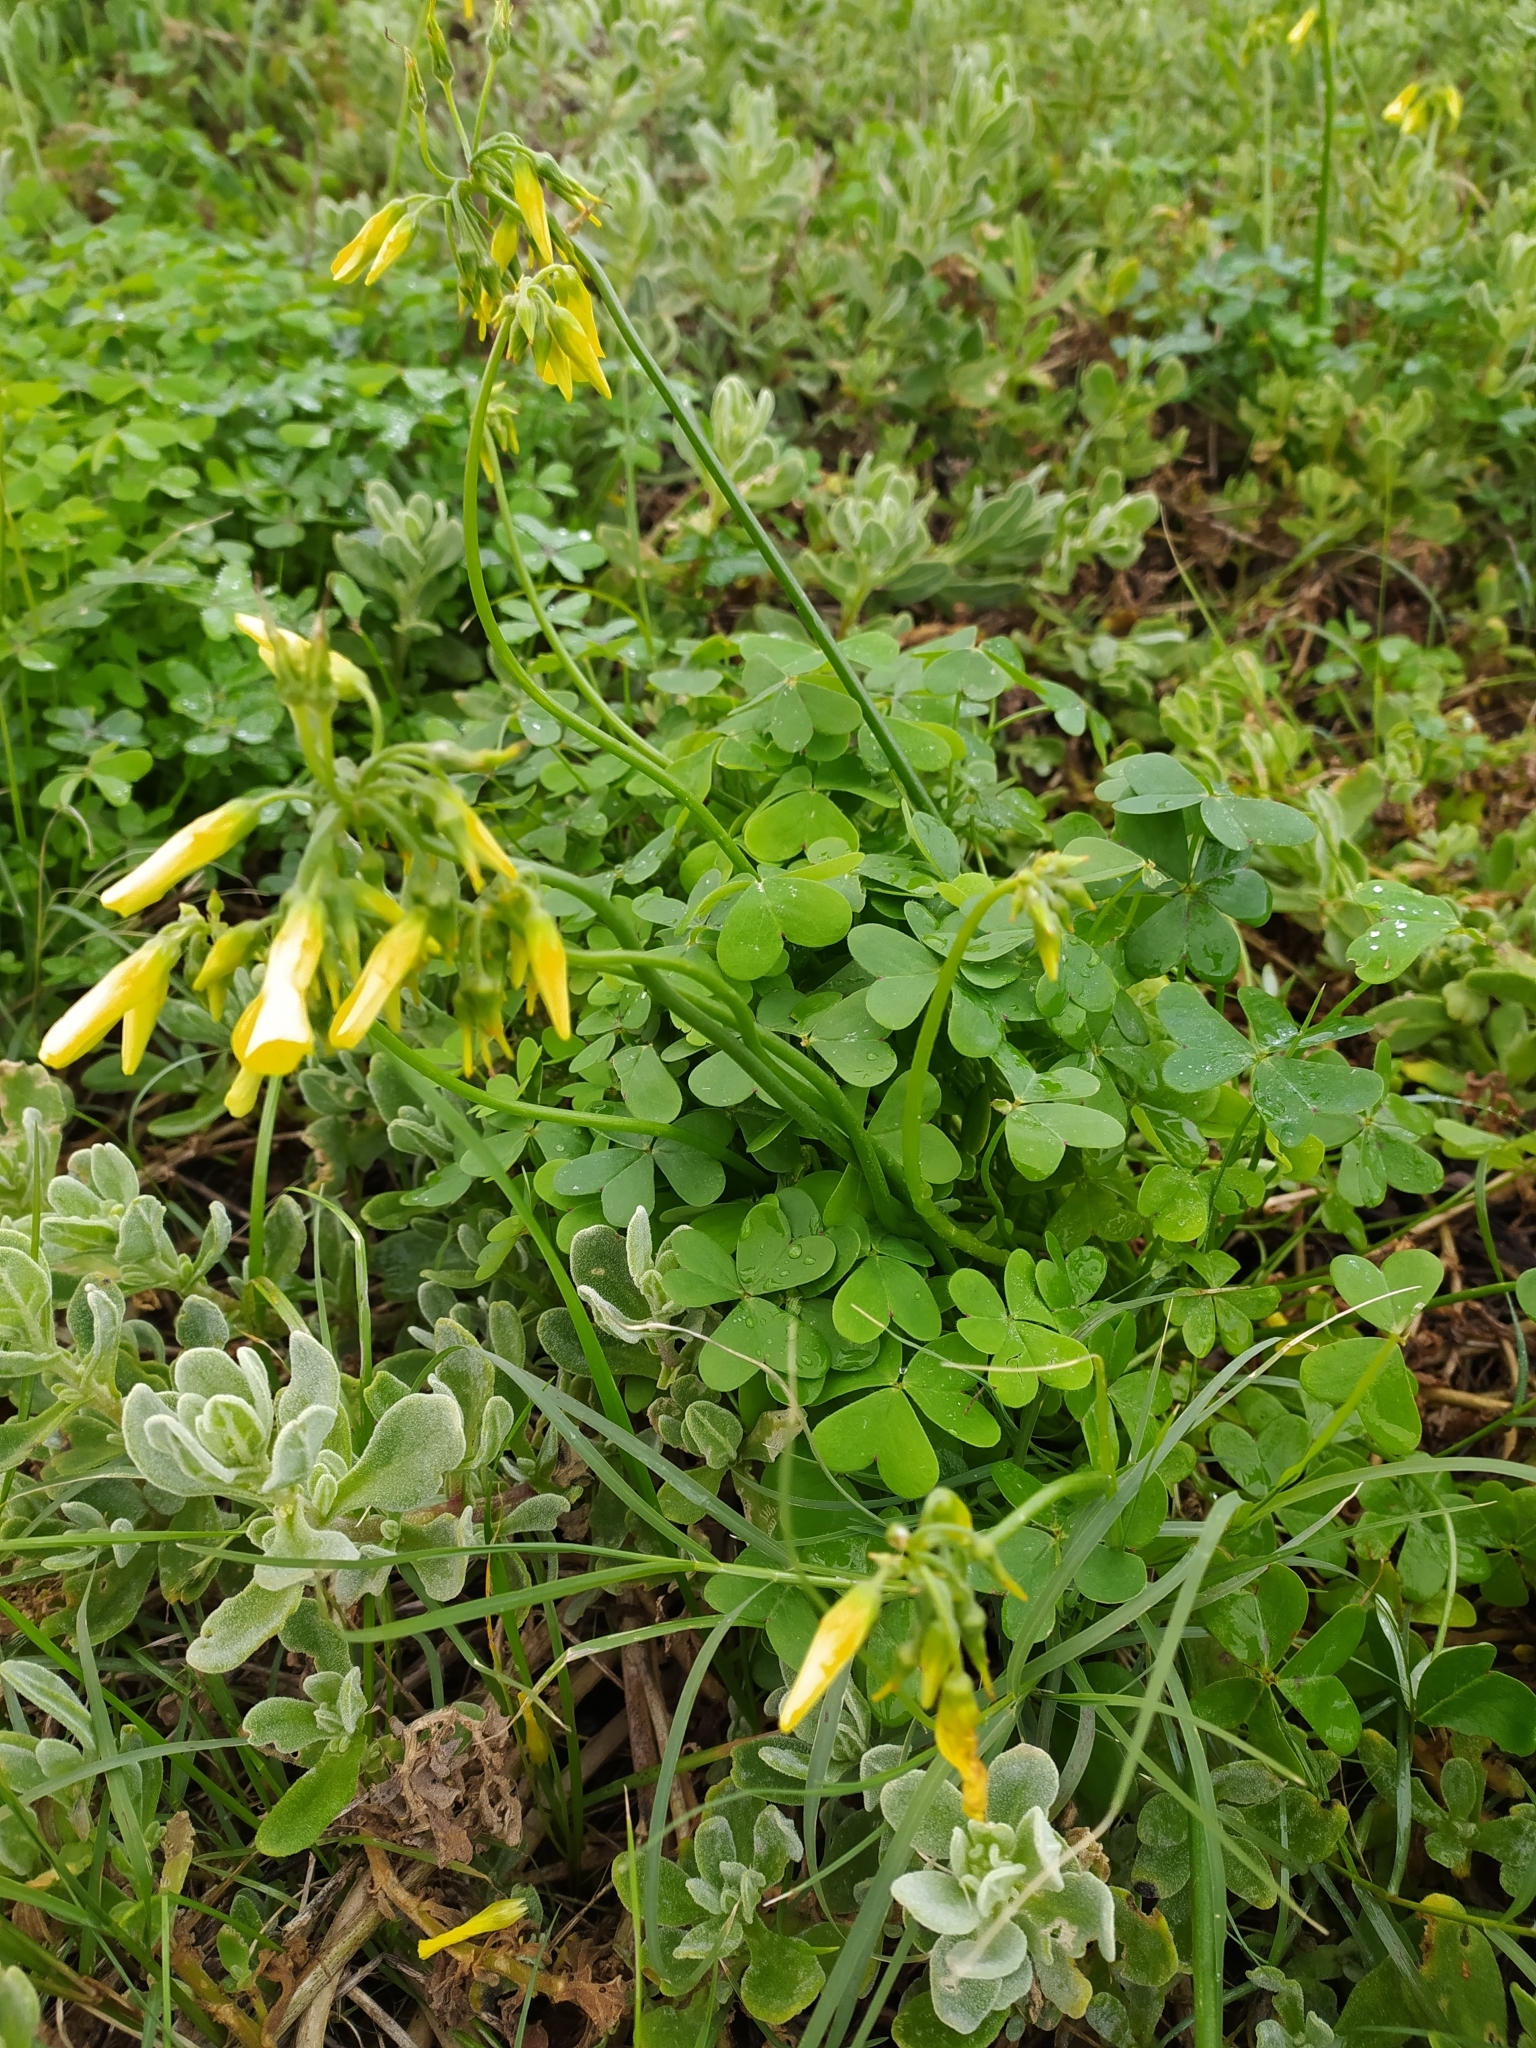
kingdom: Plantae
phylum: Tracheophyta
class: Magnoliopsida
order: Oxalidales
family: Oxalidaceae
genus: Oxalis
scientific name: Oxalis pes-caprae
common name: Bermuda-buttercup
